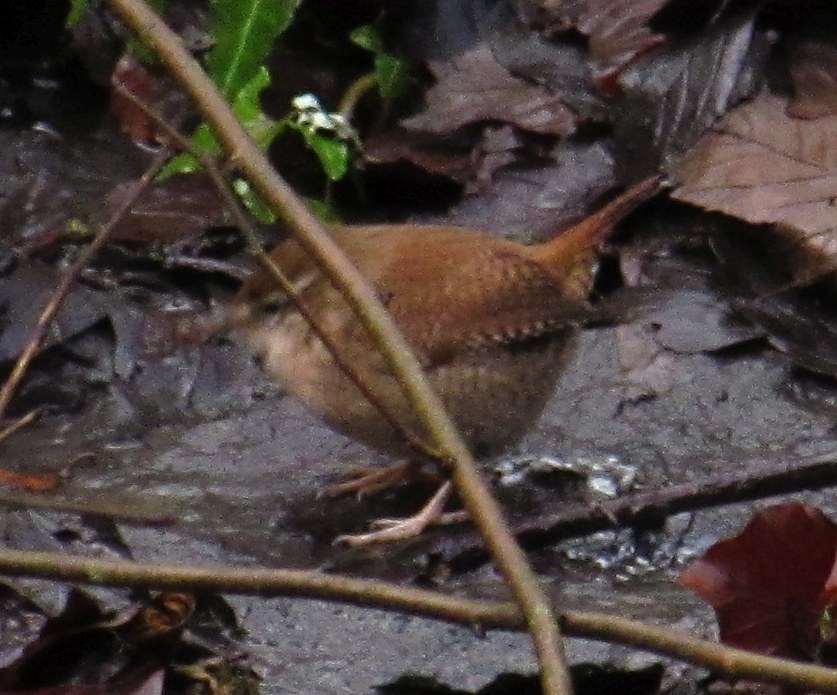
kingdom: Animalia
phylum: Chordata
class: Aves
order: Passeriformes
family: Troglodytidae
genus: Troglodytes
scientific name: Troglodytes troglodytes
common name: Eurasian wren
